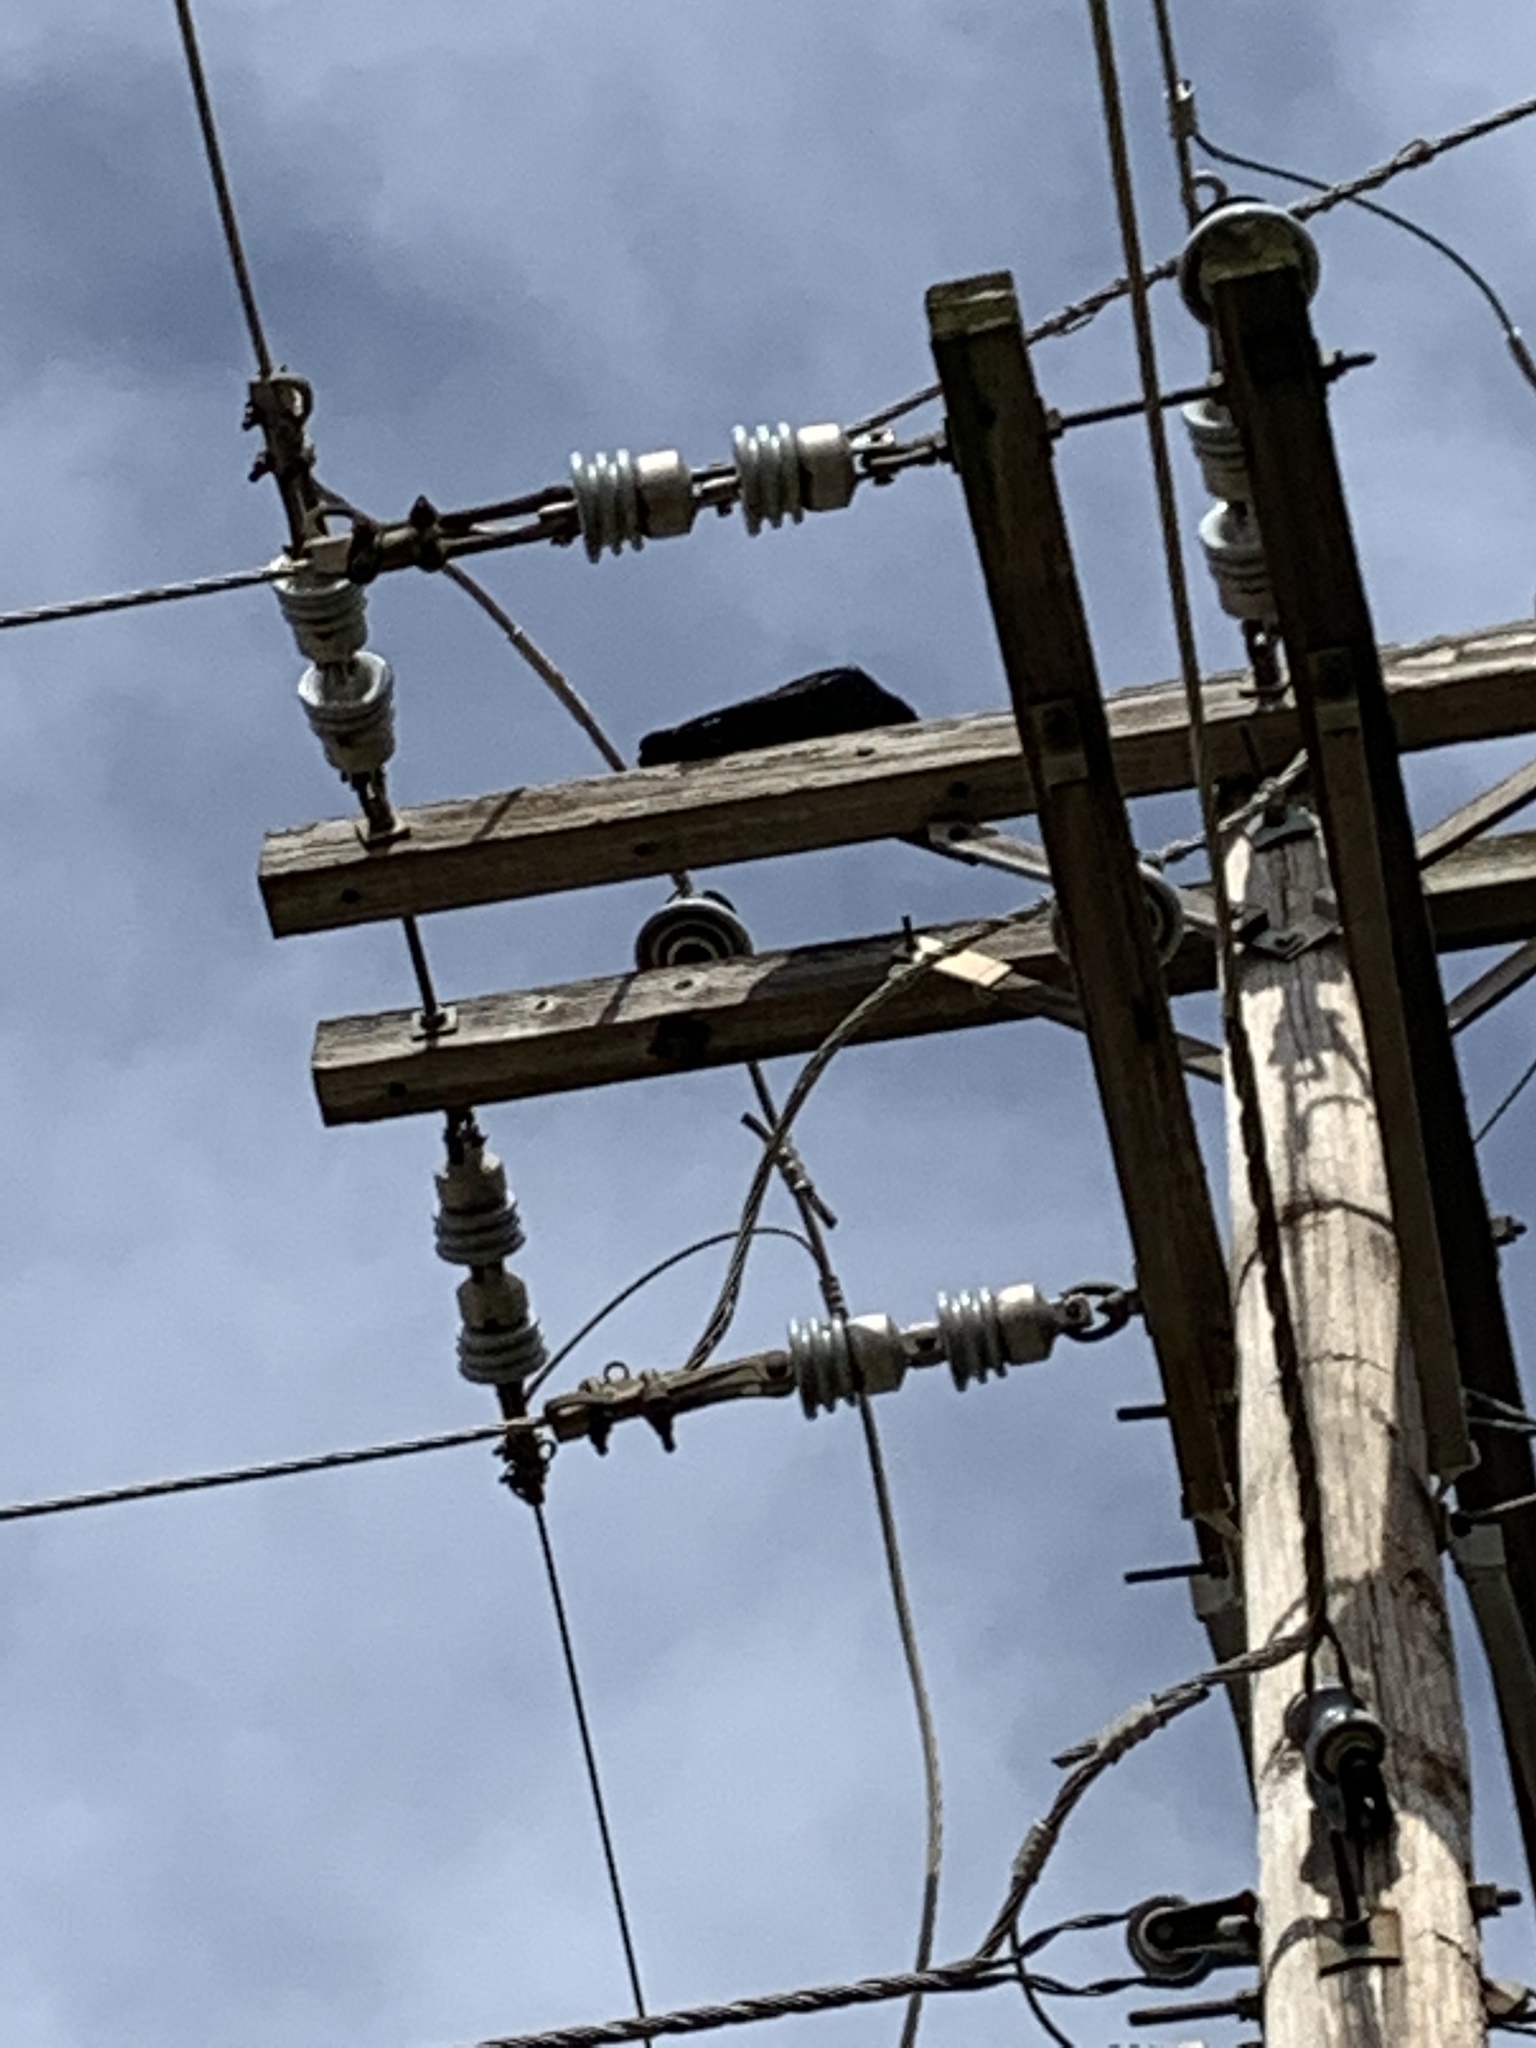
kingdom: Animalia
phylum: Chordata
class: Aves
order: Passeriformes
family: Corvidae
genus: Corvus
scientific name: Corvus ossifragus
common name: Fish crow
